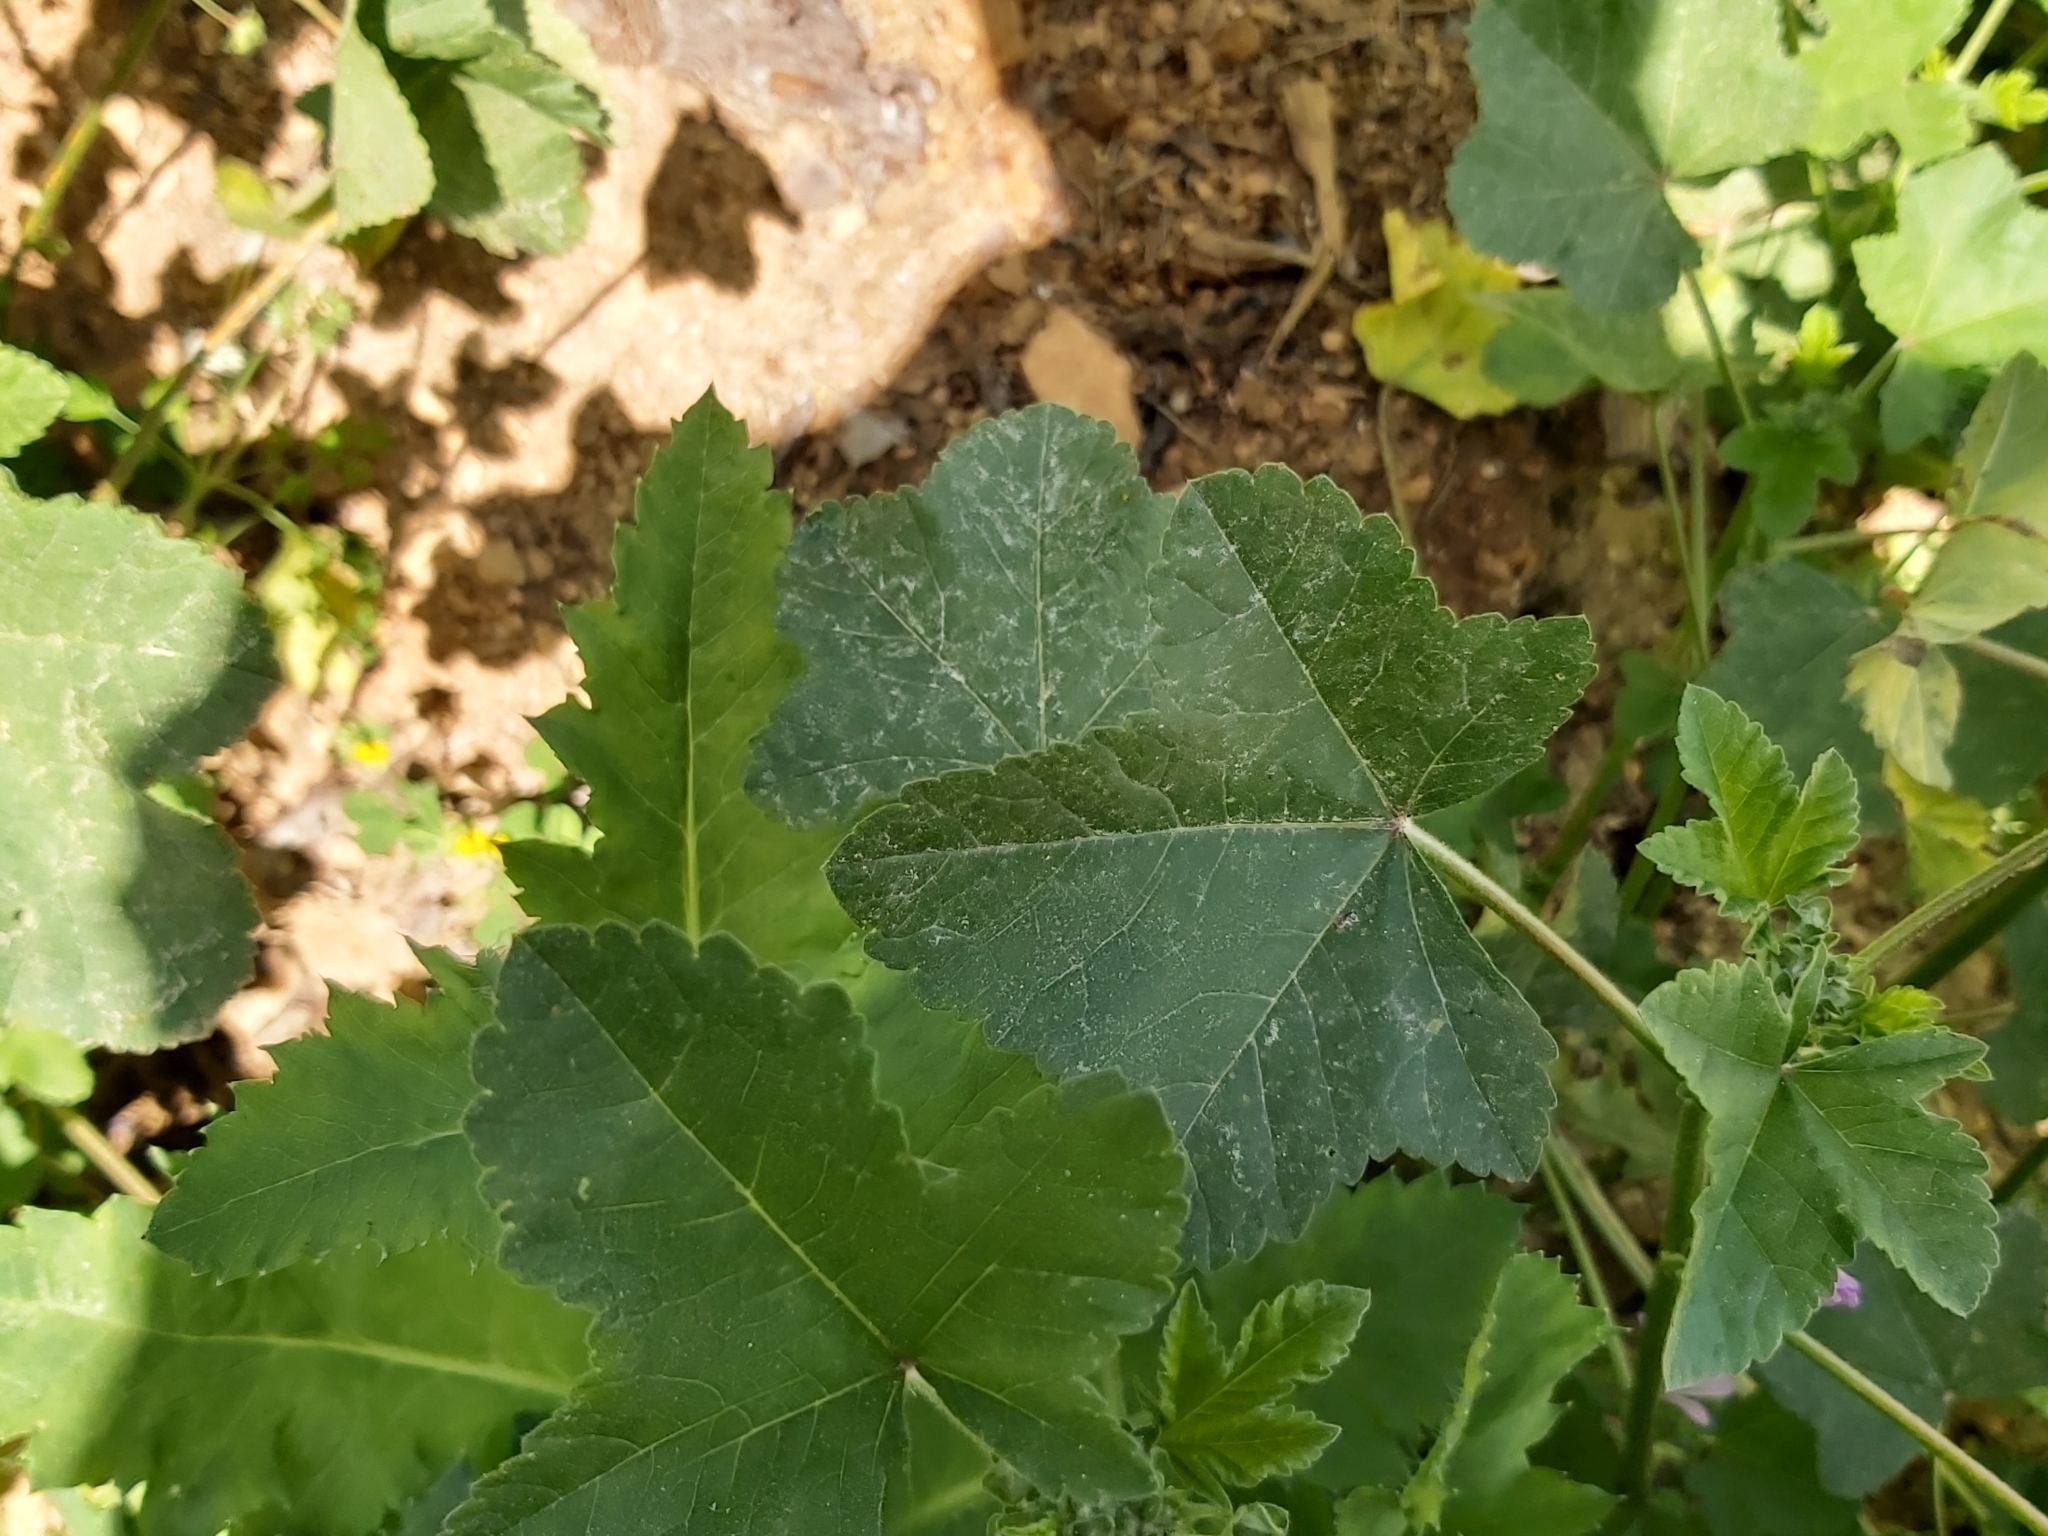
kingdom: Plantae
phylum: Tracheophyta
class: Magnoliopsida
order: Ranunculales
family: Papaveraceae
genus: Papaver
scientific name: Papaver somniferum
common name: Opium poppy
